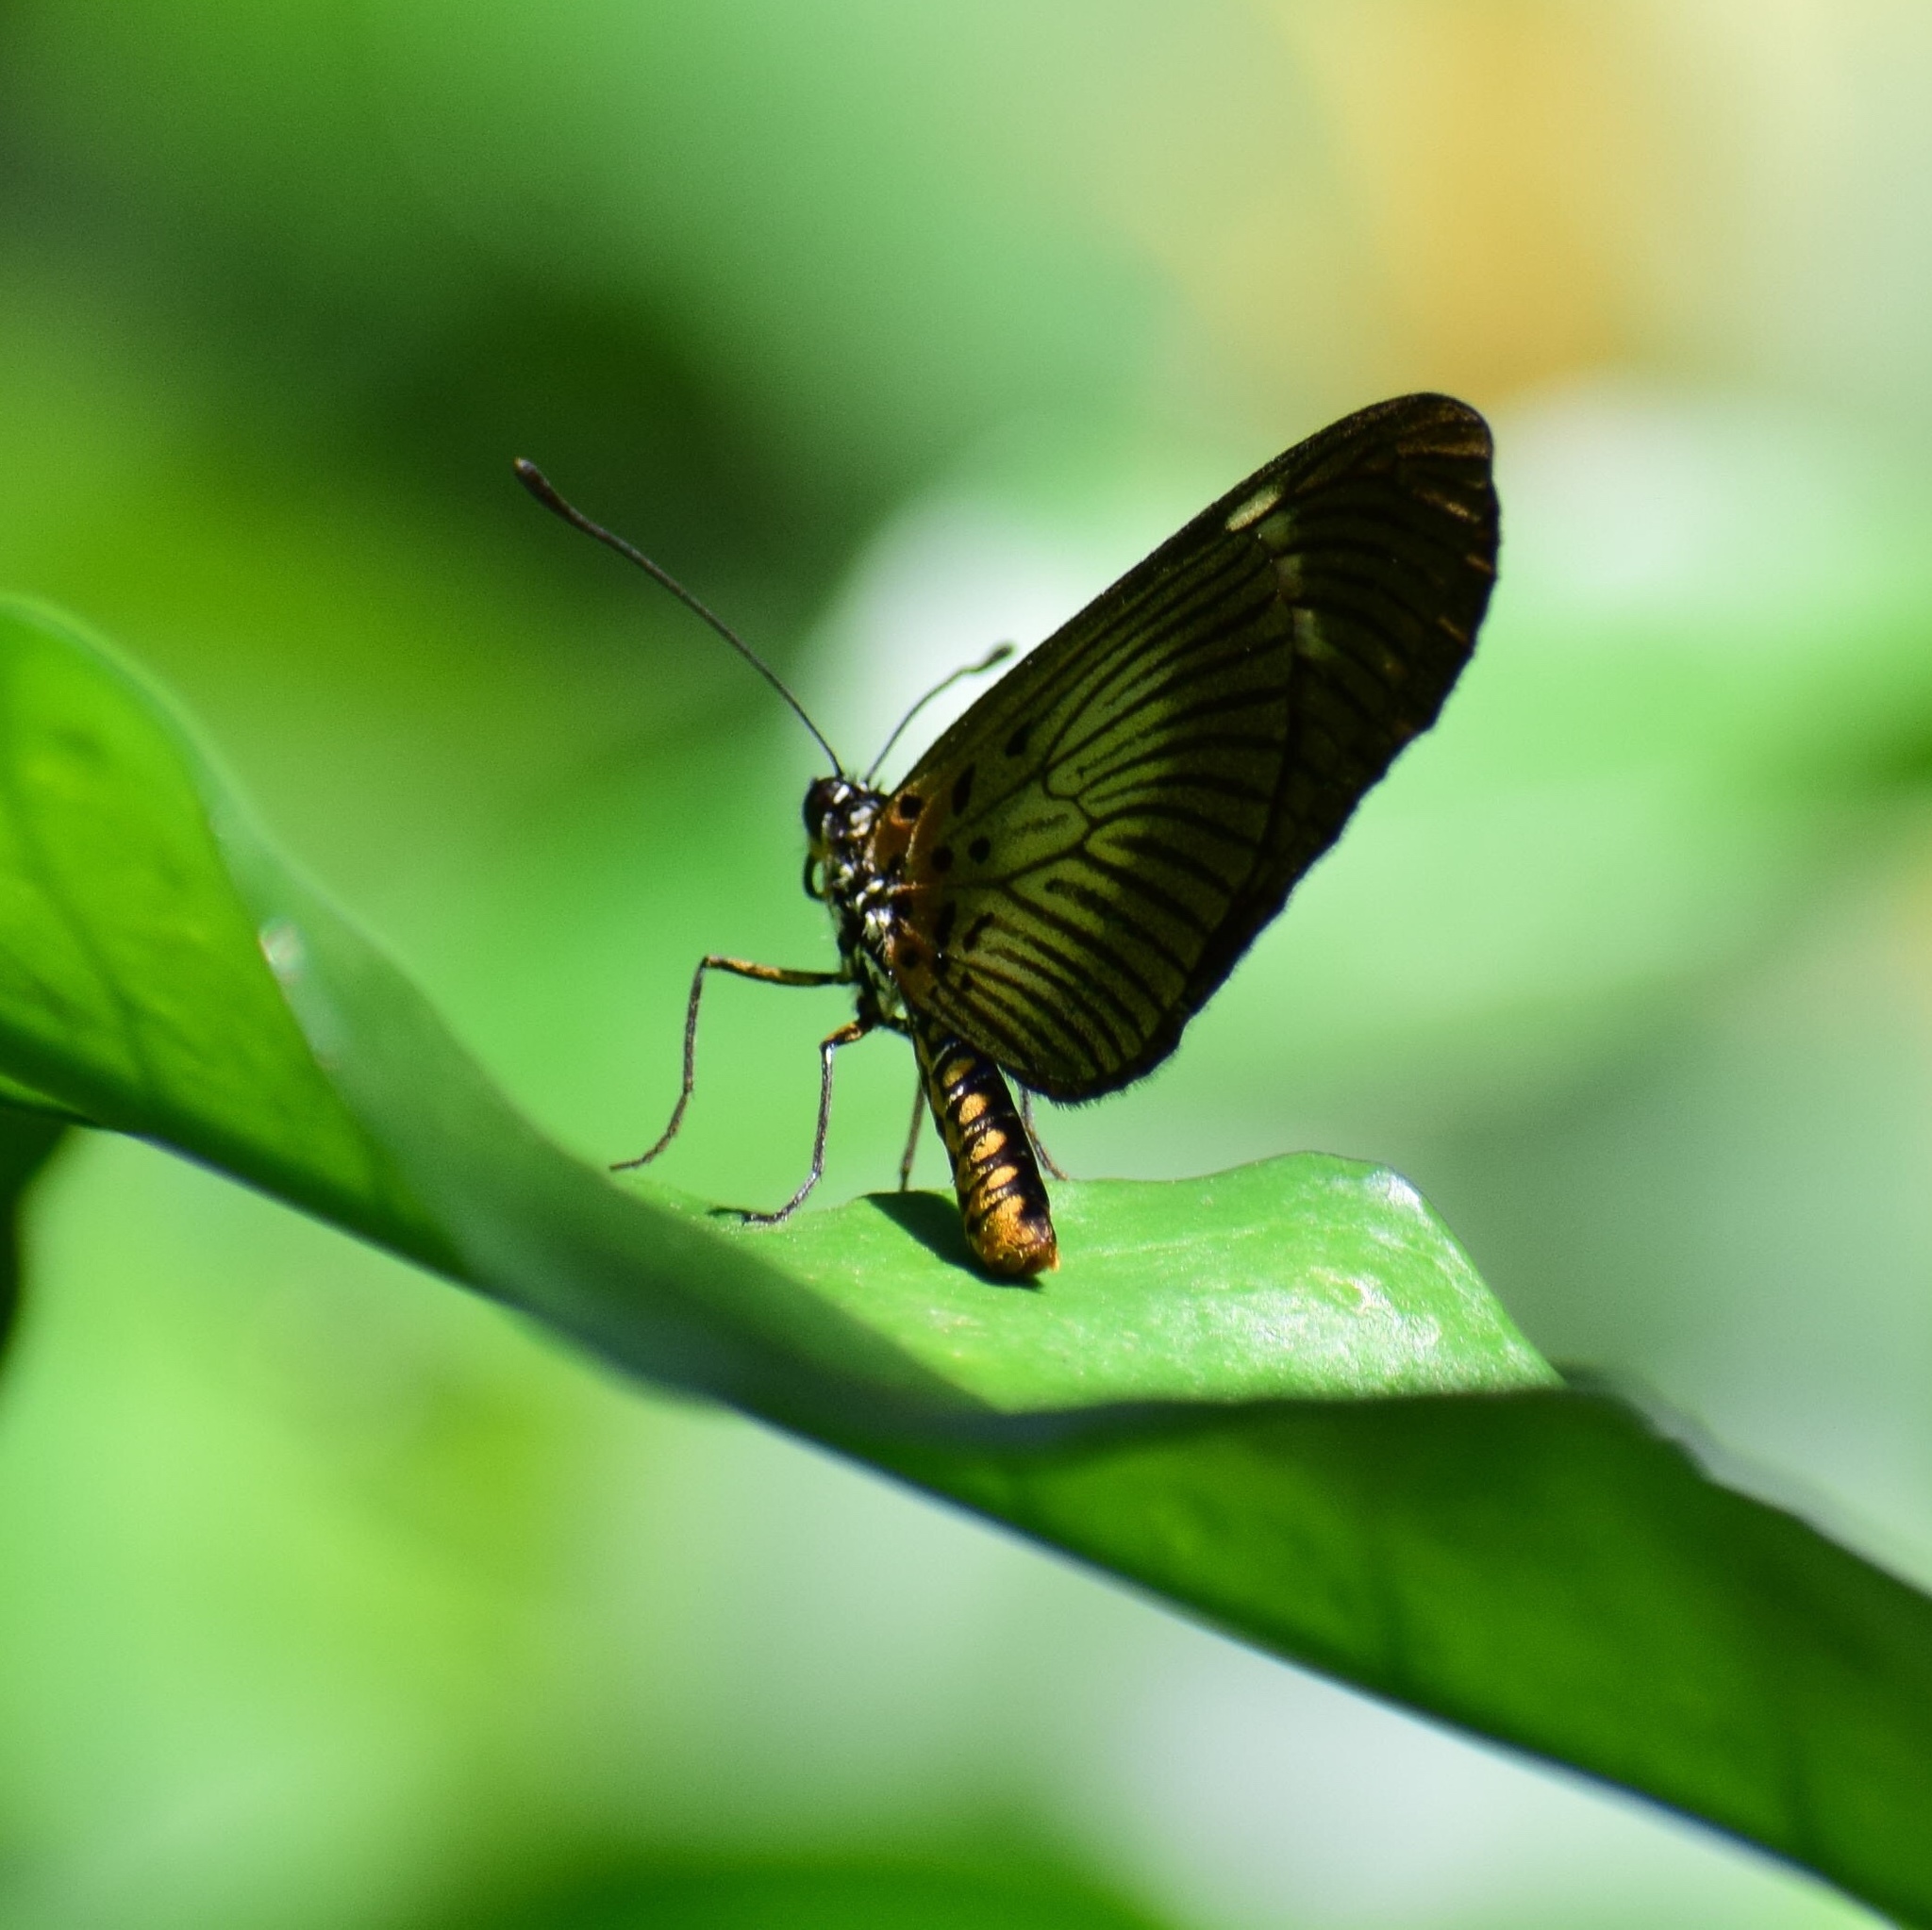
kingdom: Animalia
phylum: Arthropoda
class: Insecta
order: Lepidoptera
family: Nymphalidae
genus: Acraea
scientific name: Acraea esebria
